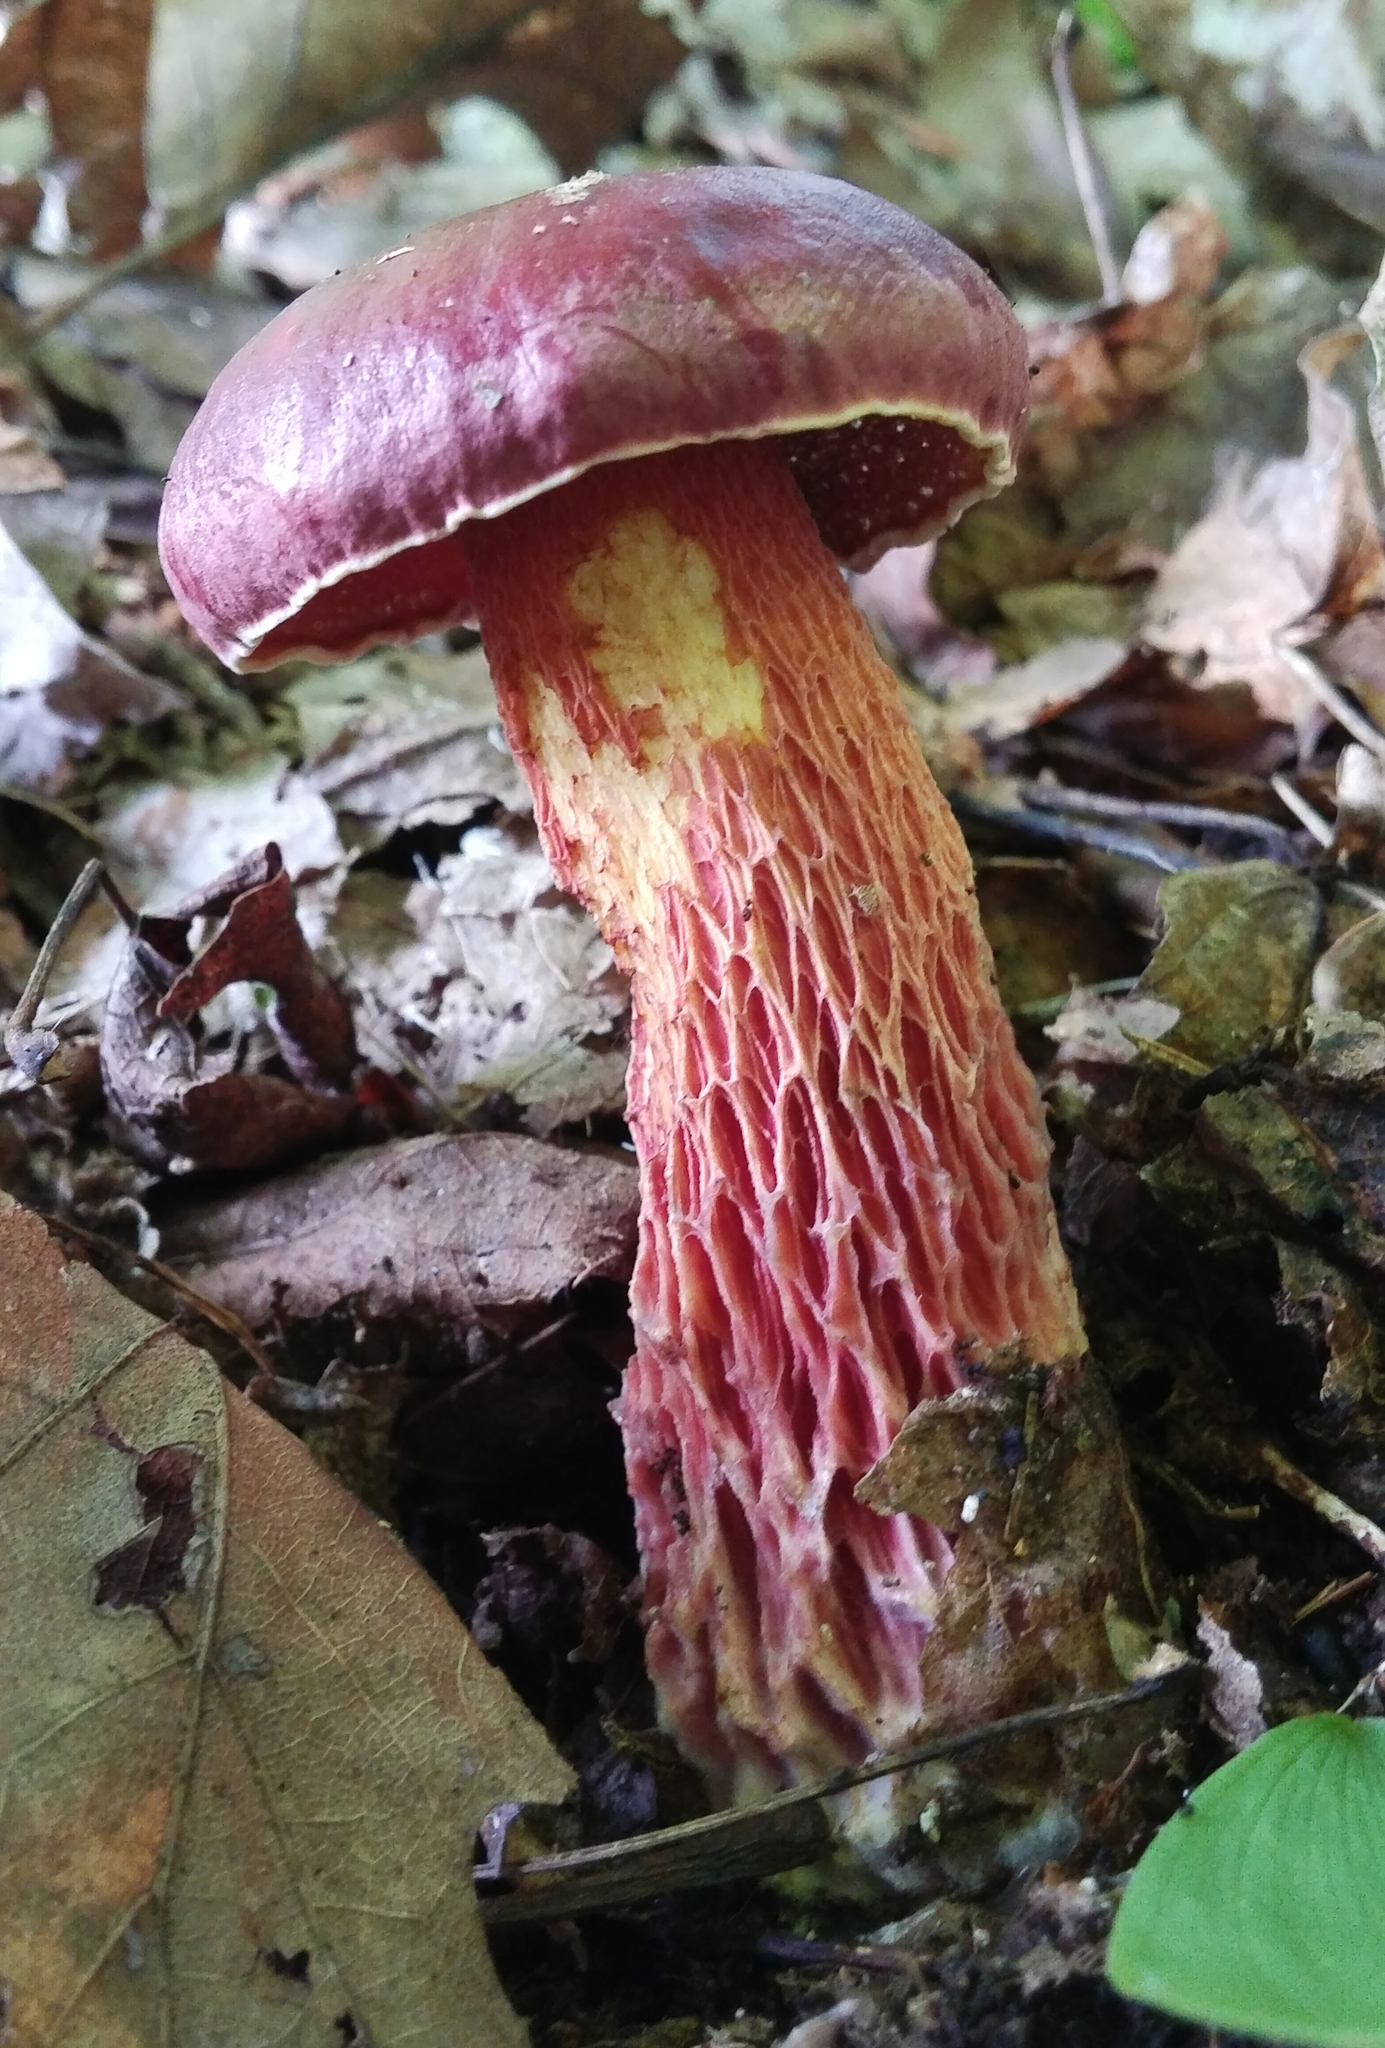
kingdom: Fungi
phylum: Basidiomycota
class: Agaricomycetes
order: Boletales
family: Boletaceae
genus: Butyriboletus
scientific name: Butyriboletus frostii
